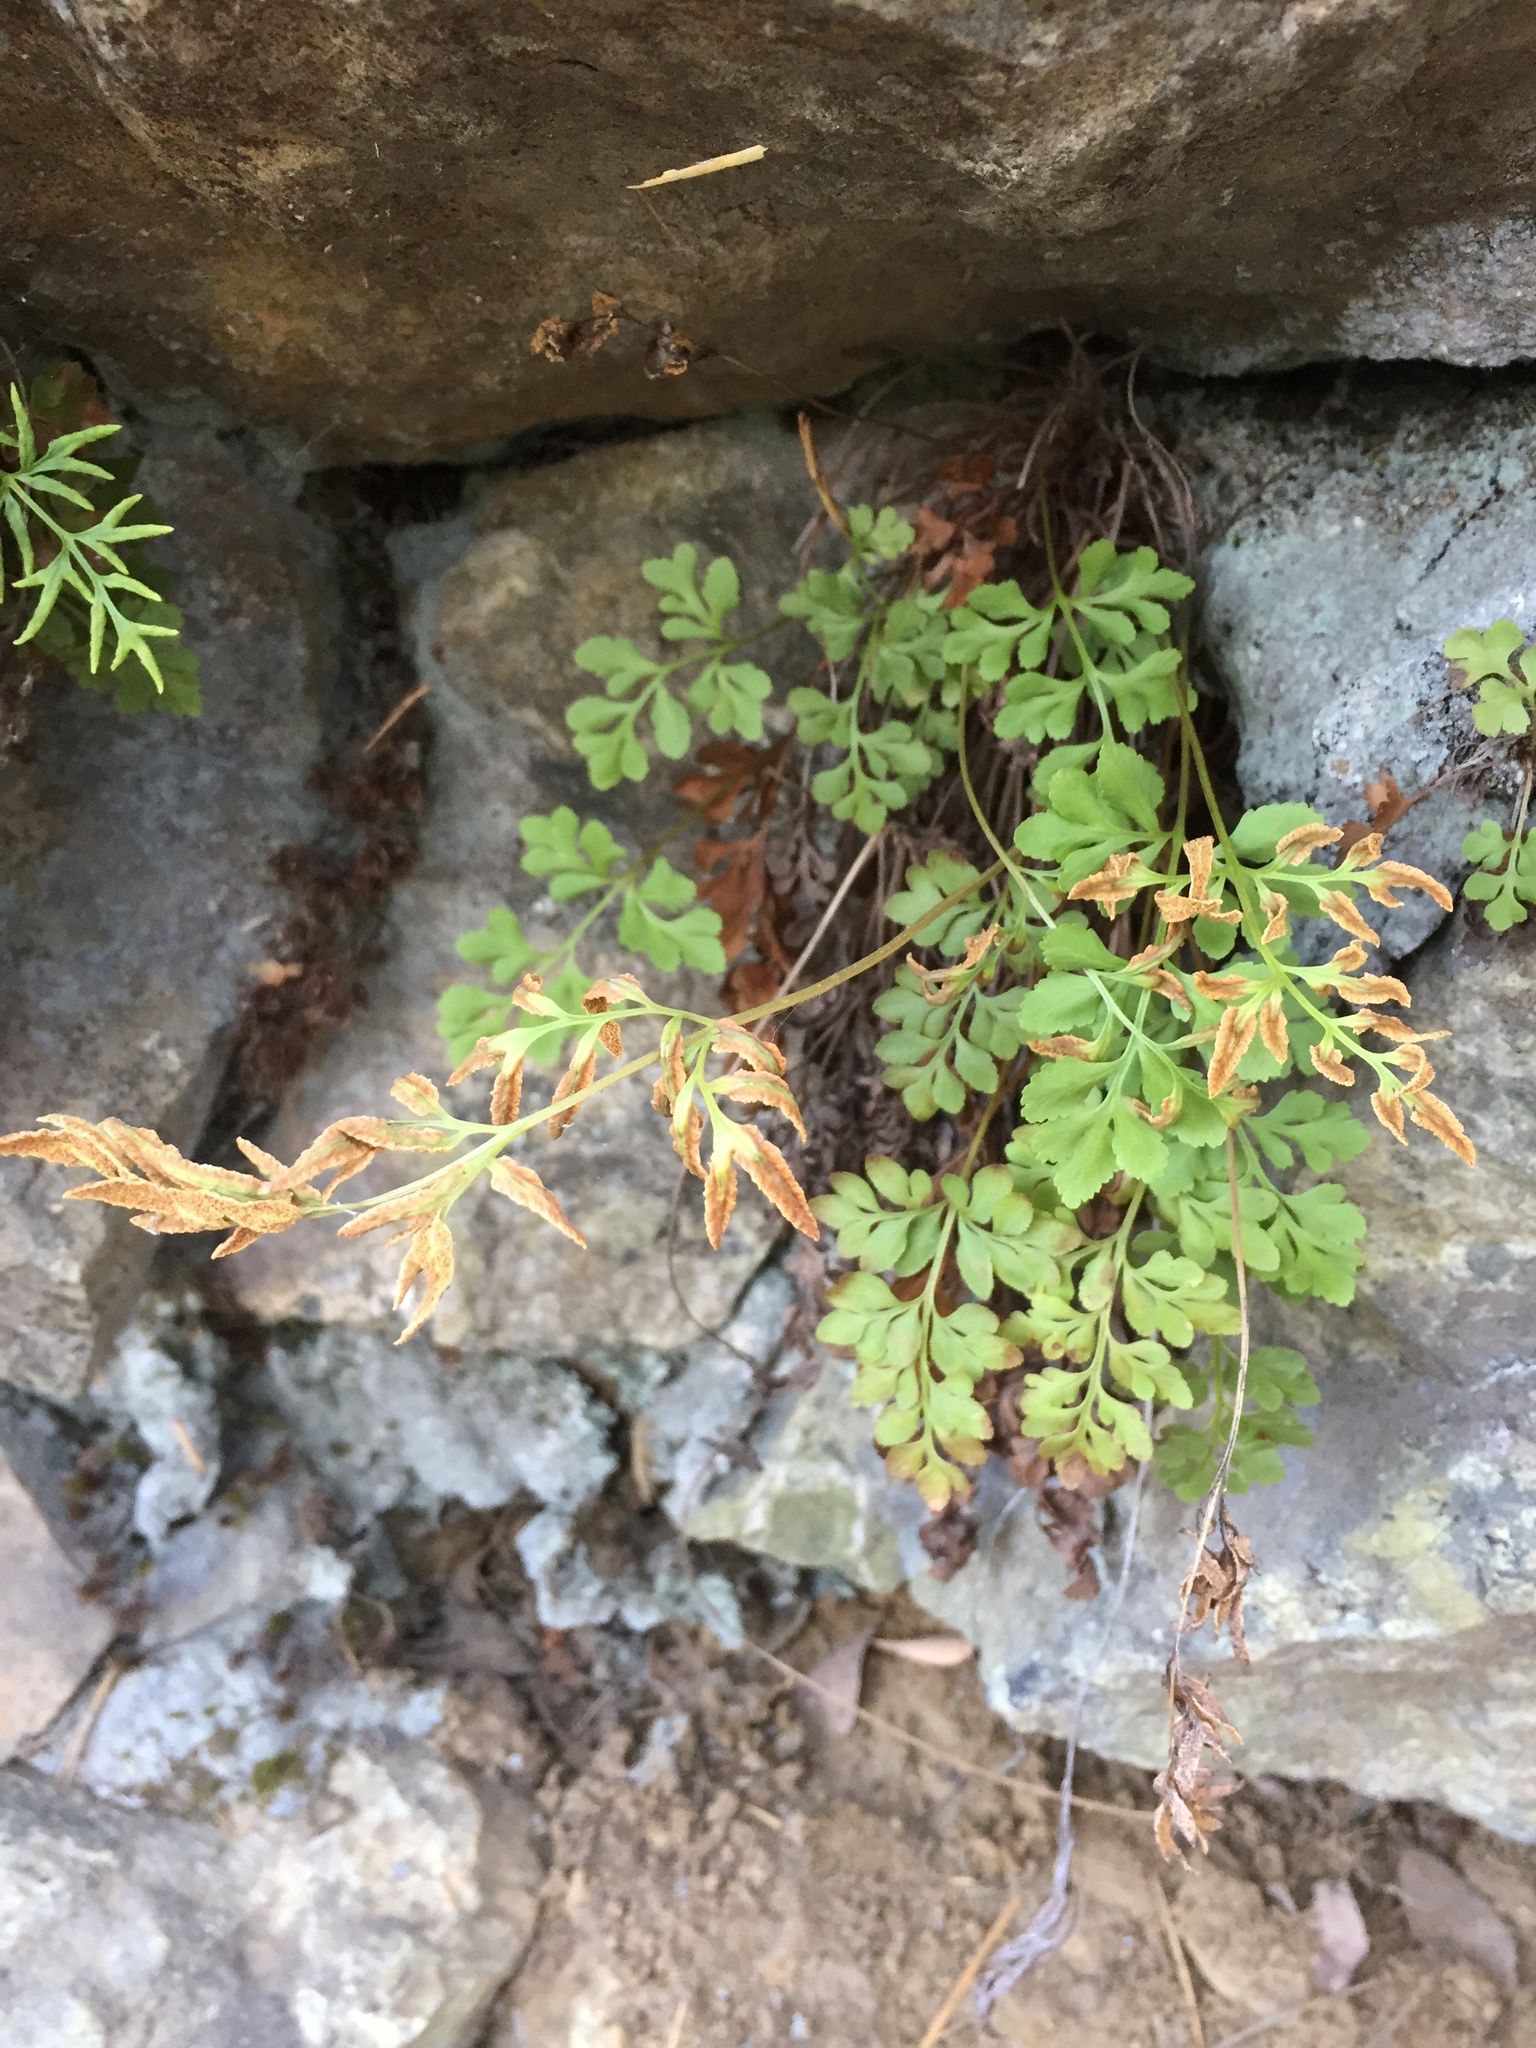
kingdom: Plantae
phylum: Tracheophyta
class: Polypodiopsida
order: Polypodiales
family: Pteridaceae
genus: Cryptogramma
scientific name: Cryptogramma acrostichoides
